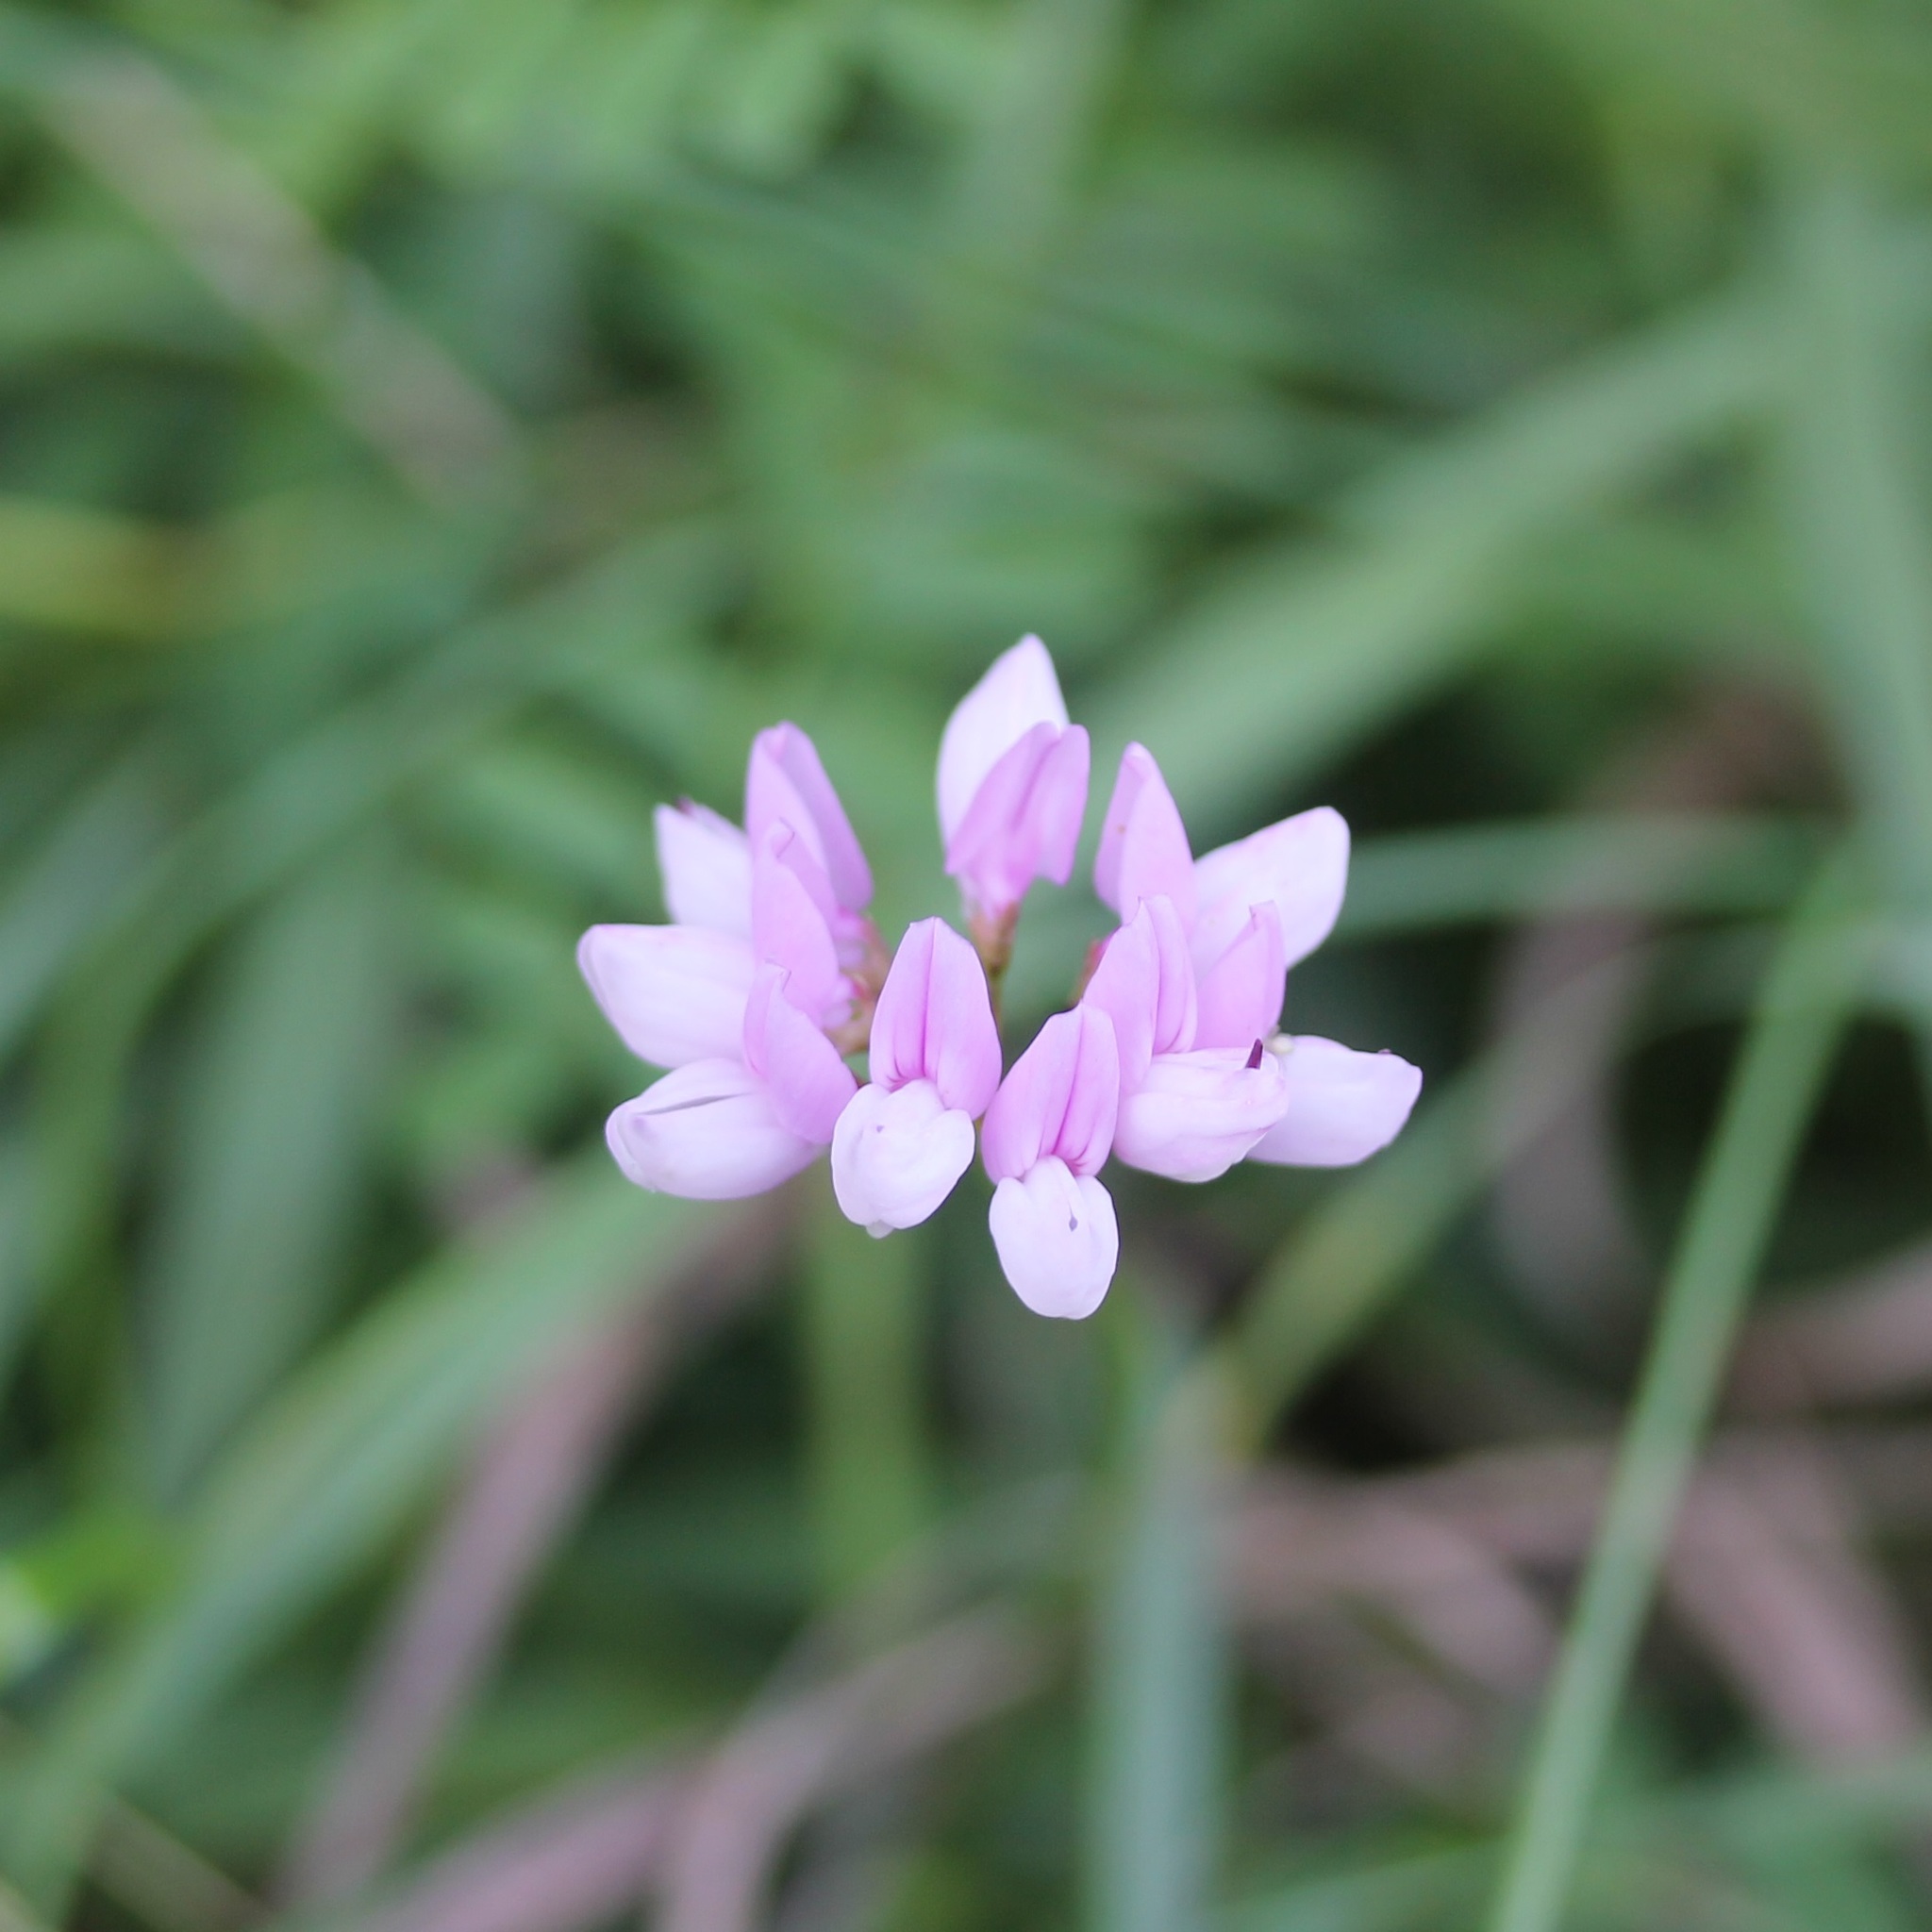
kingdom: Plantae
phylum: Tracheophyta
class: Magnoliopsida
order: Fabales
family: Fabaceae
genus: Coronilla
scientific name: Coronilla varia
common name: Crownvetch
